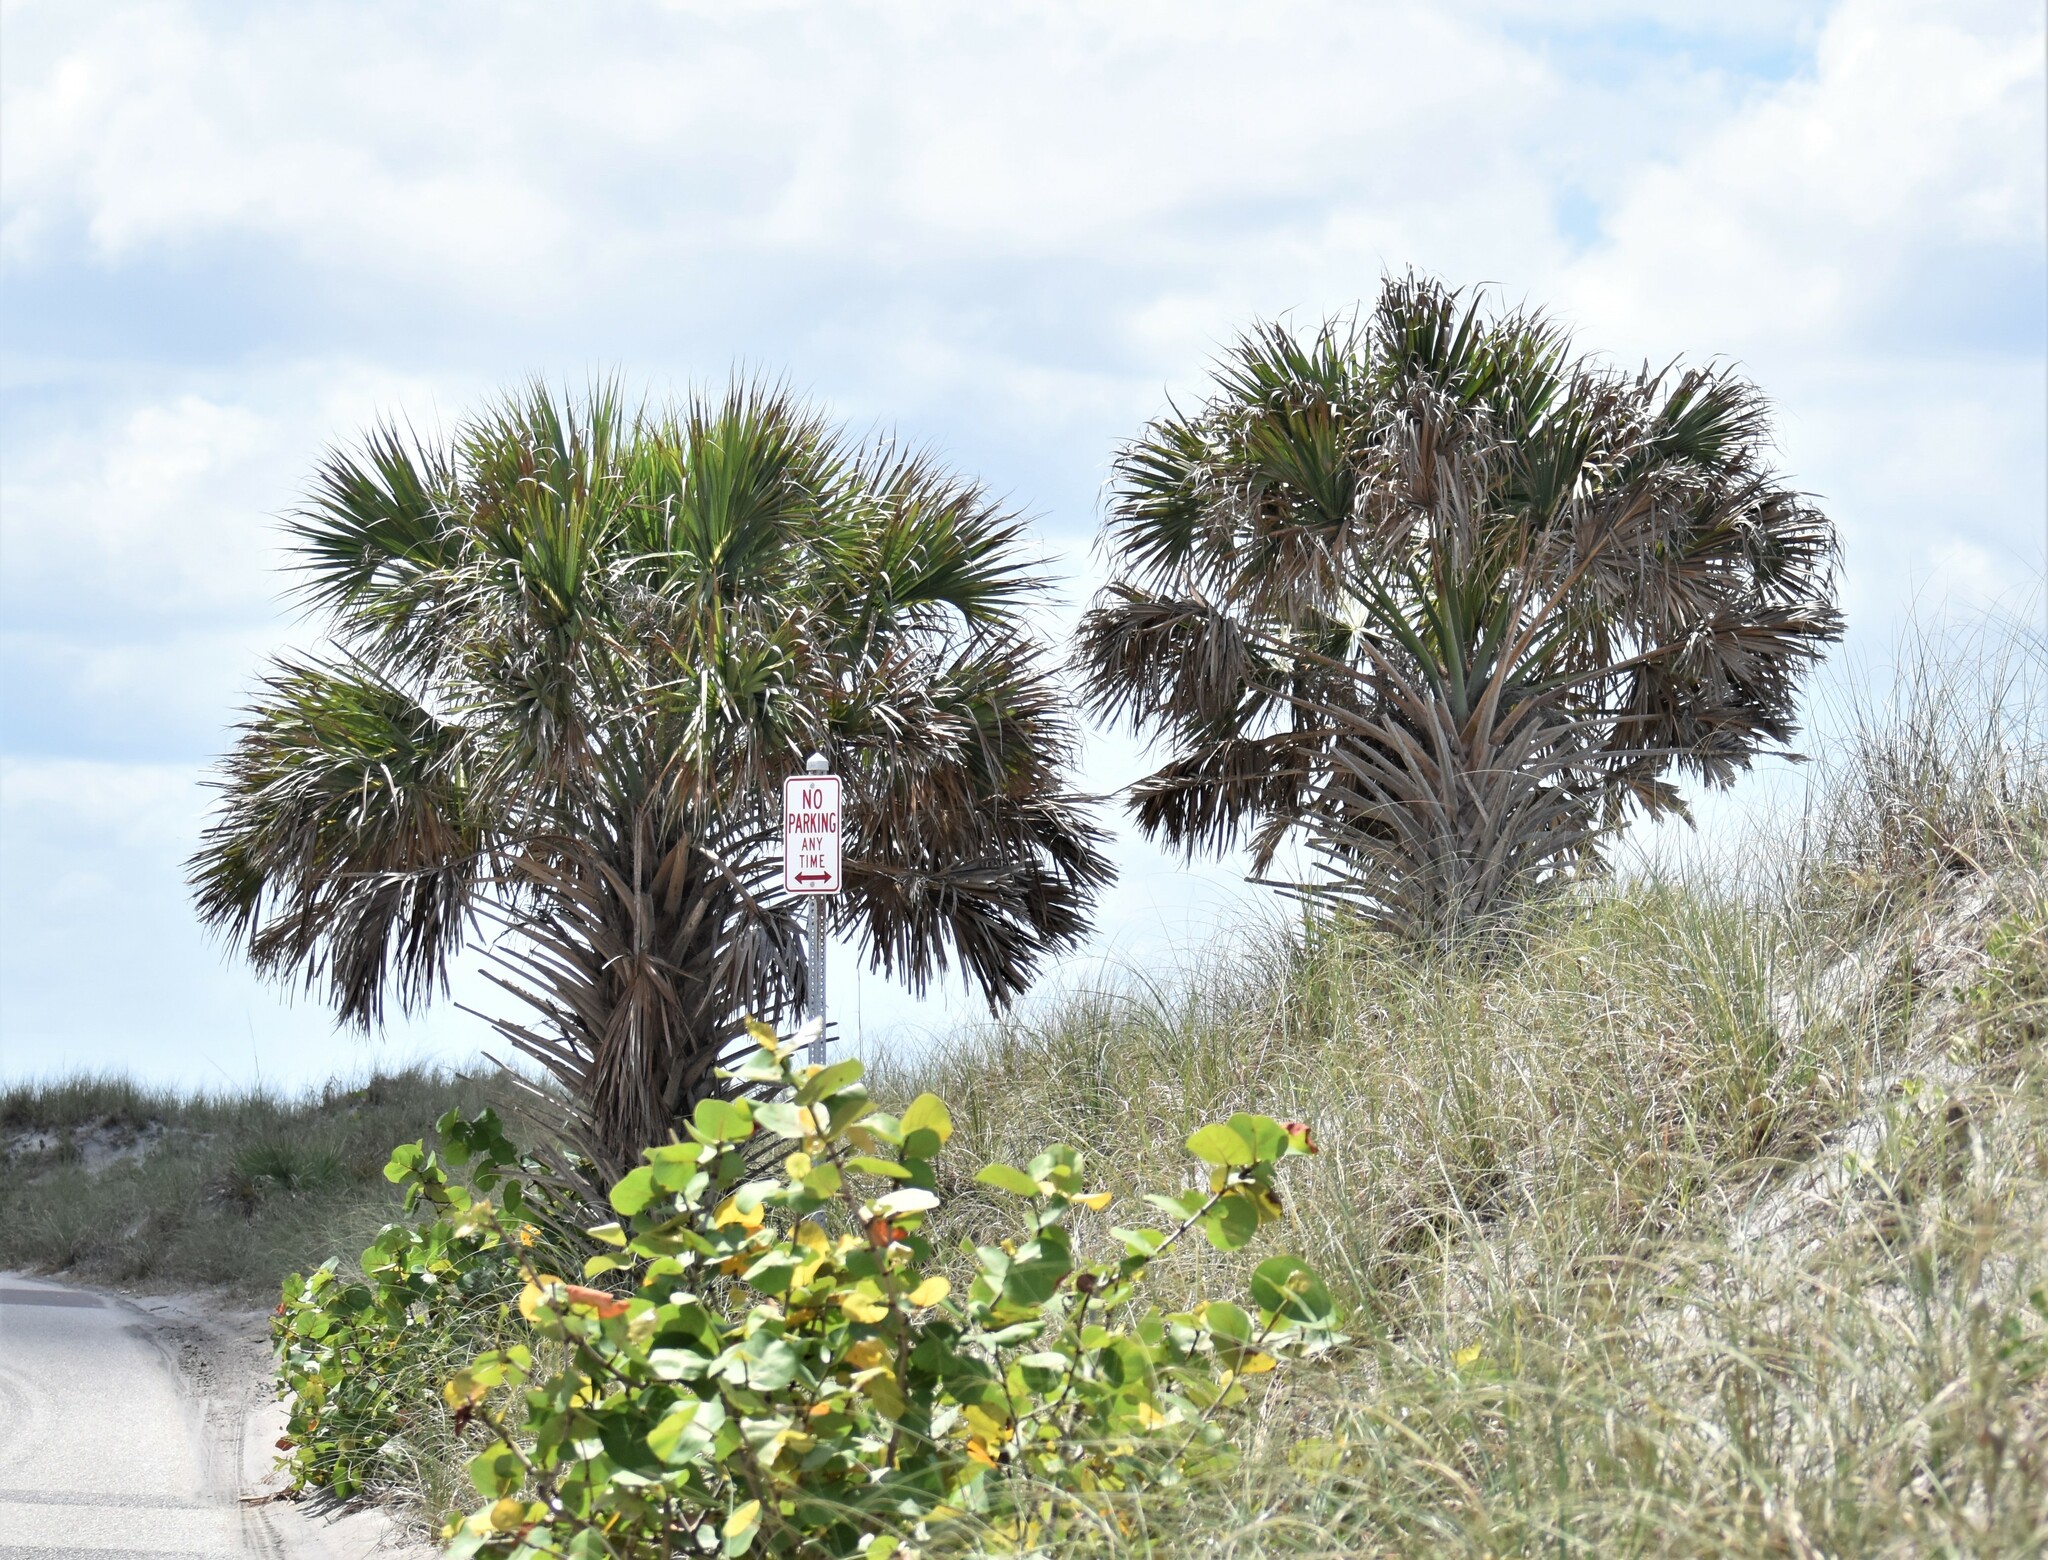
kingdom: Plantae
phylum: Tracheophyta
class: Liliopsida
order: Arecales
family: Arecaceae
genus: Sabal
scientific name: Sabal palmetto
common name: Blue palmetto
